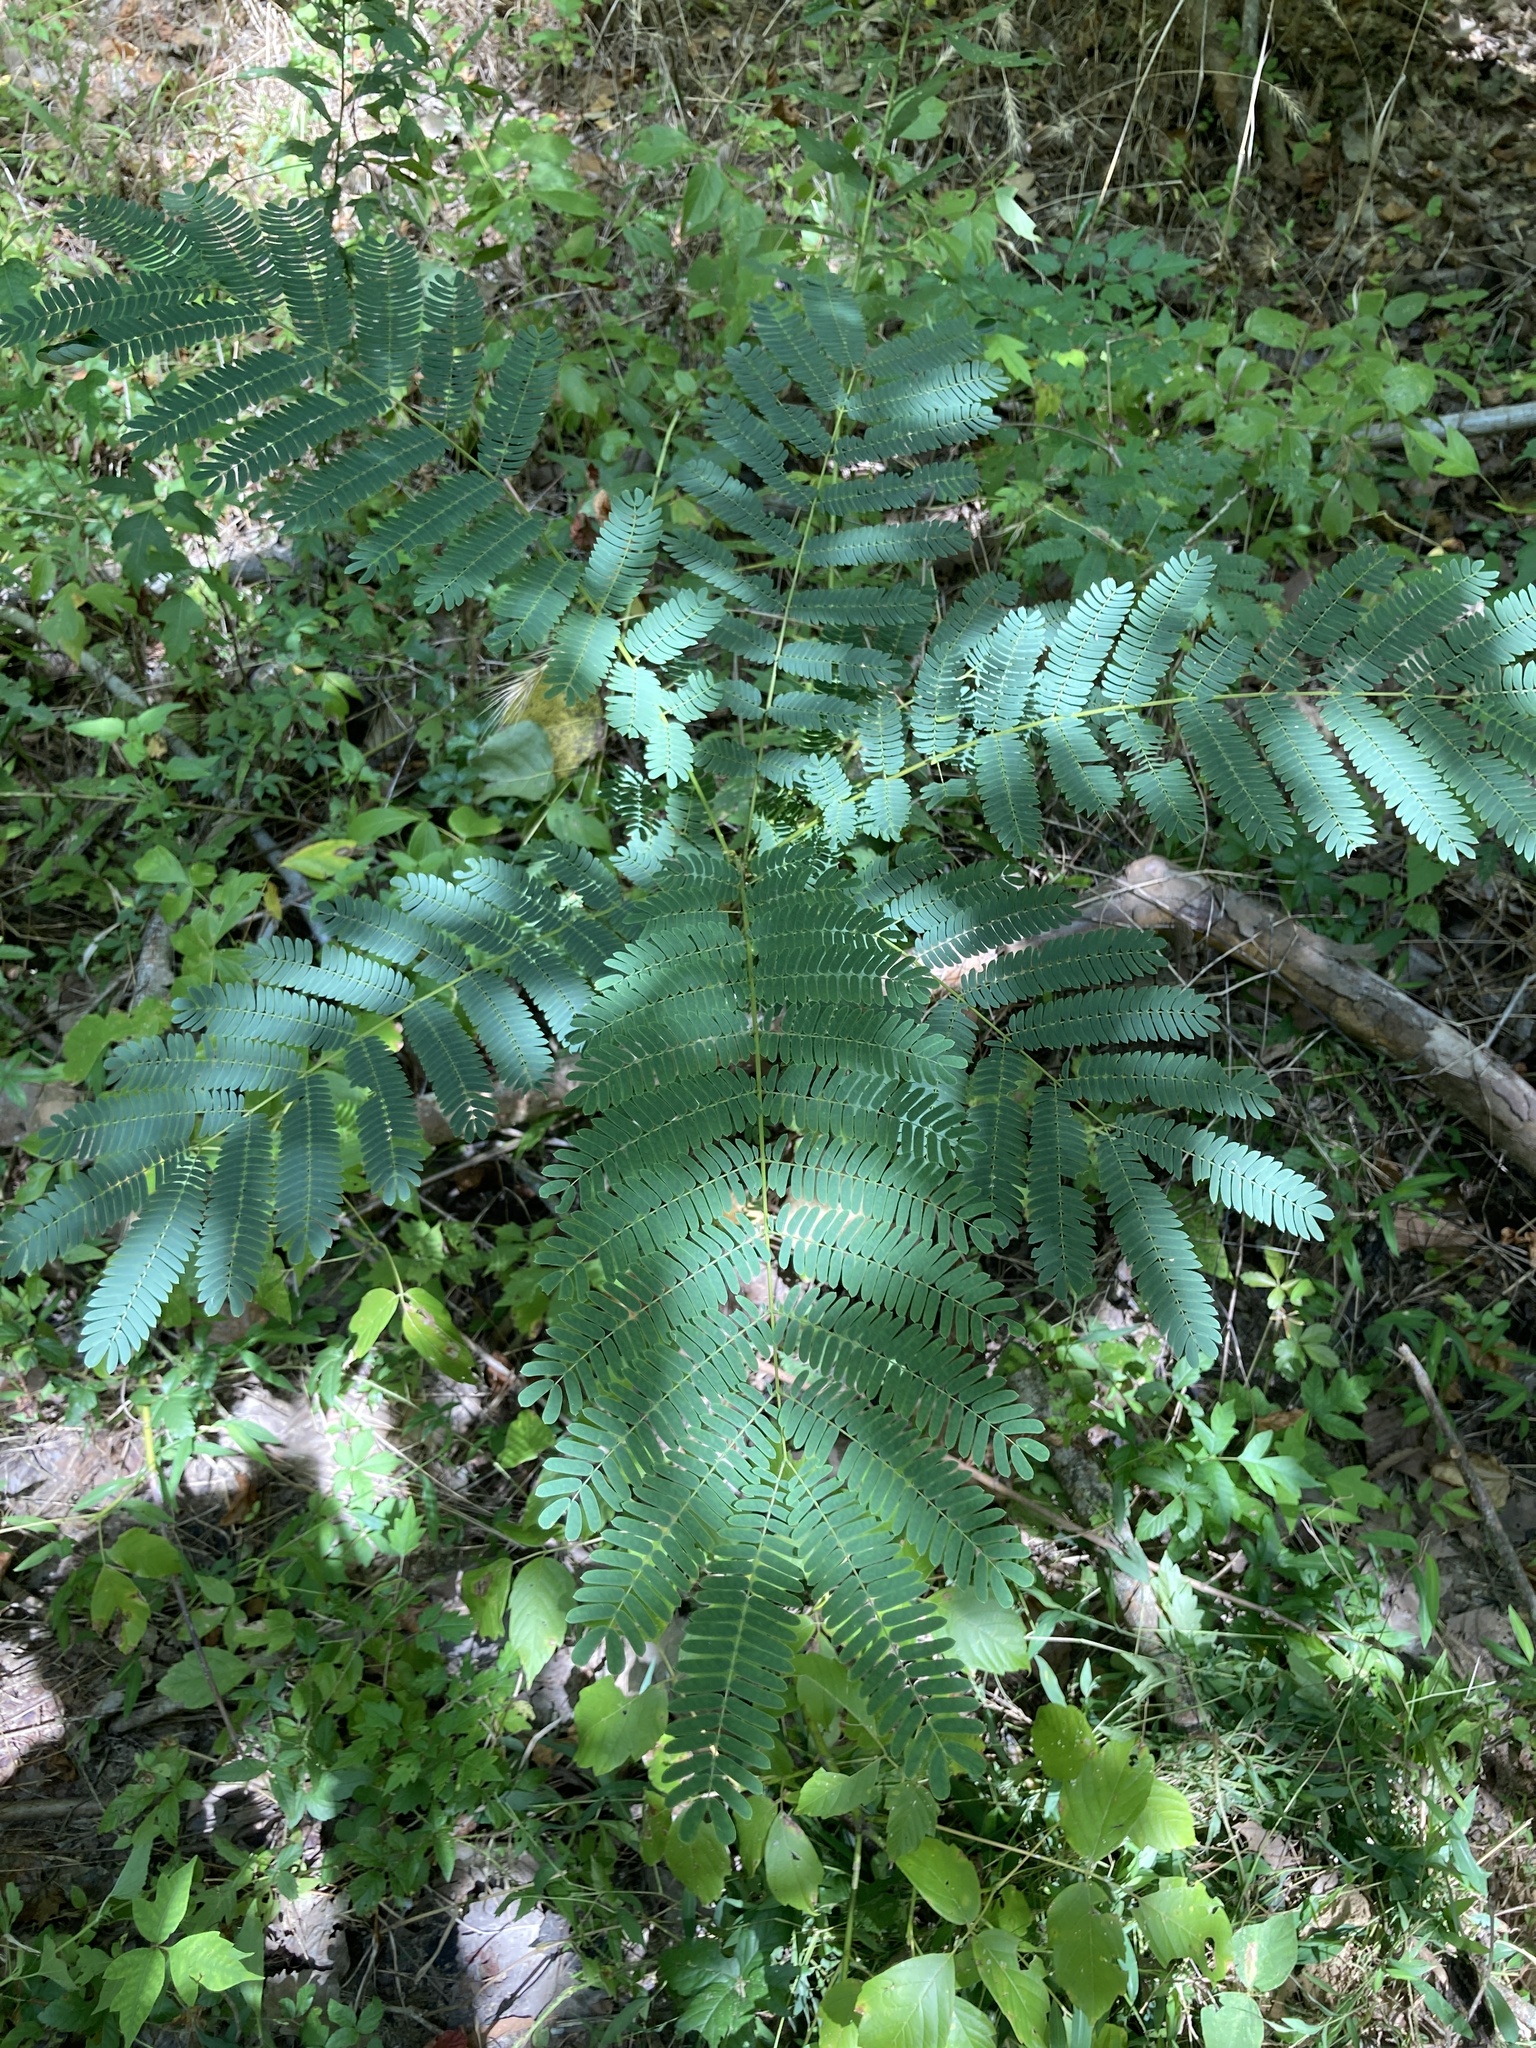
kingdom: Plantae
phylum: Tracheophyta
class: Magnoliopsida
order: Fabales
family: Fabaceae
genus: Albizia
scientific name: Albizia julibrissin
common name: Silktree
